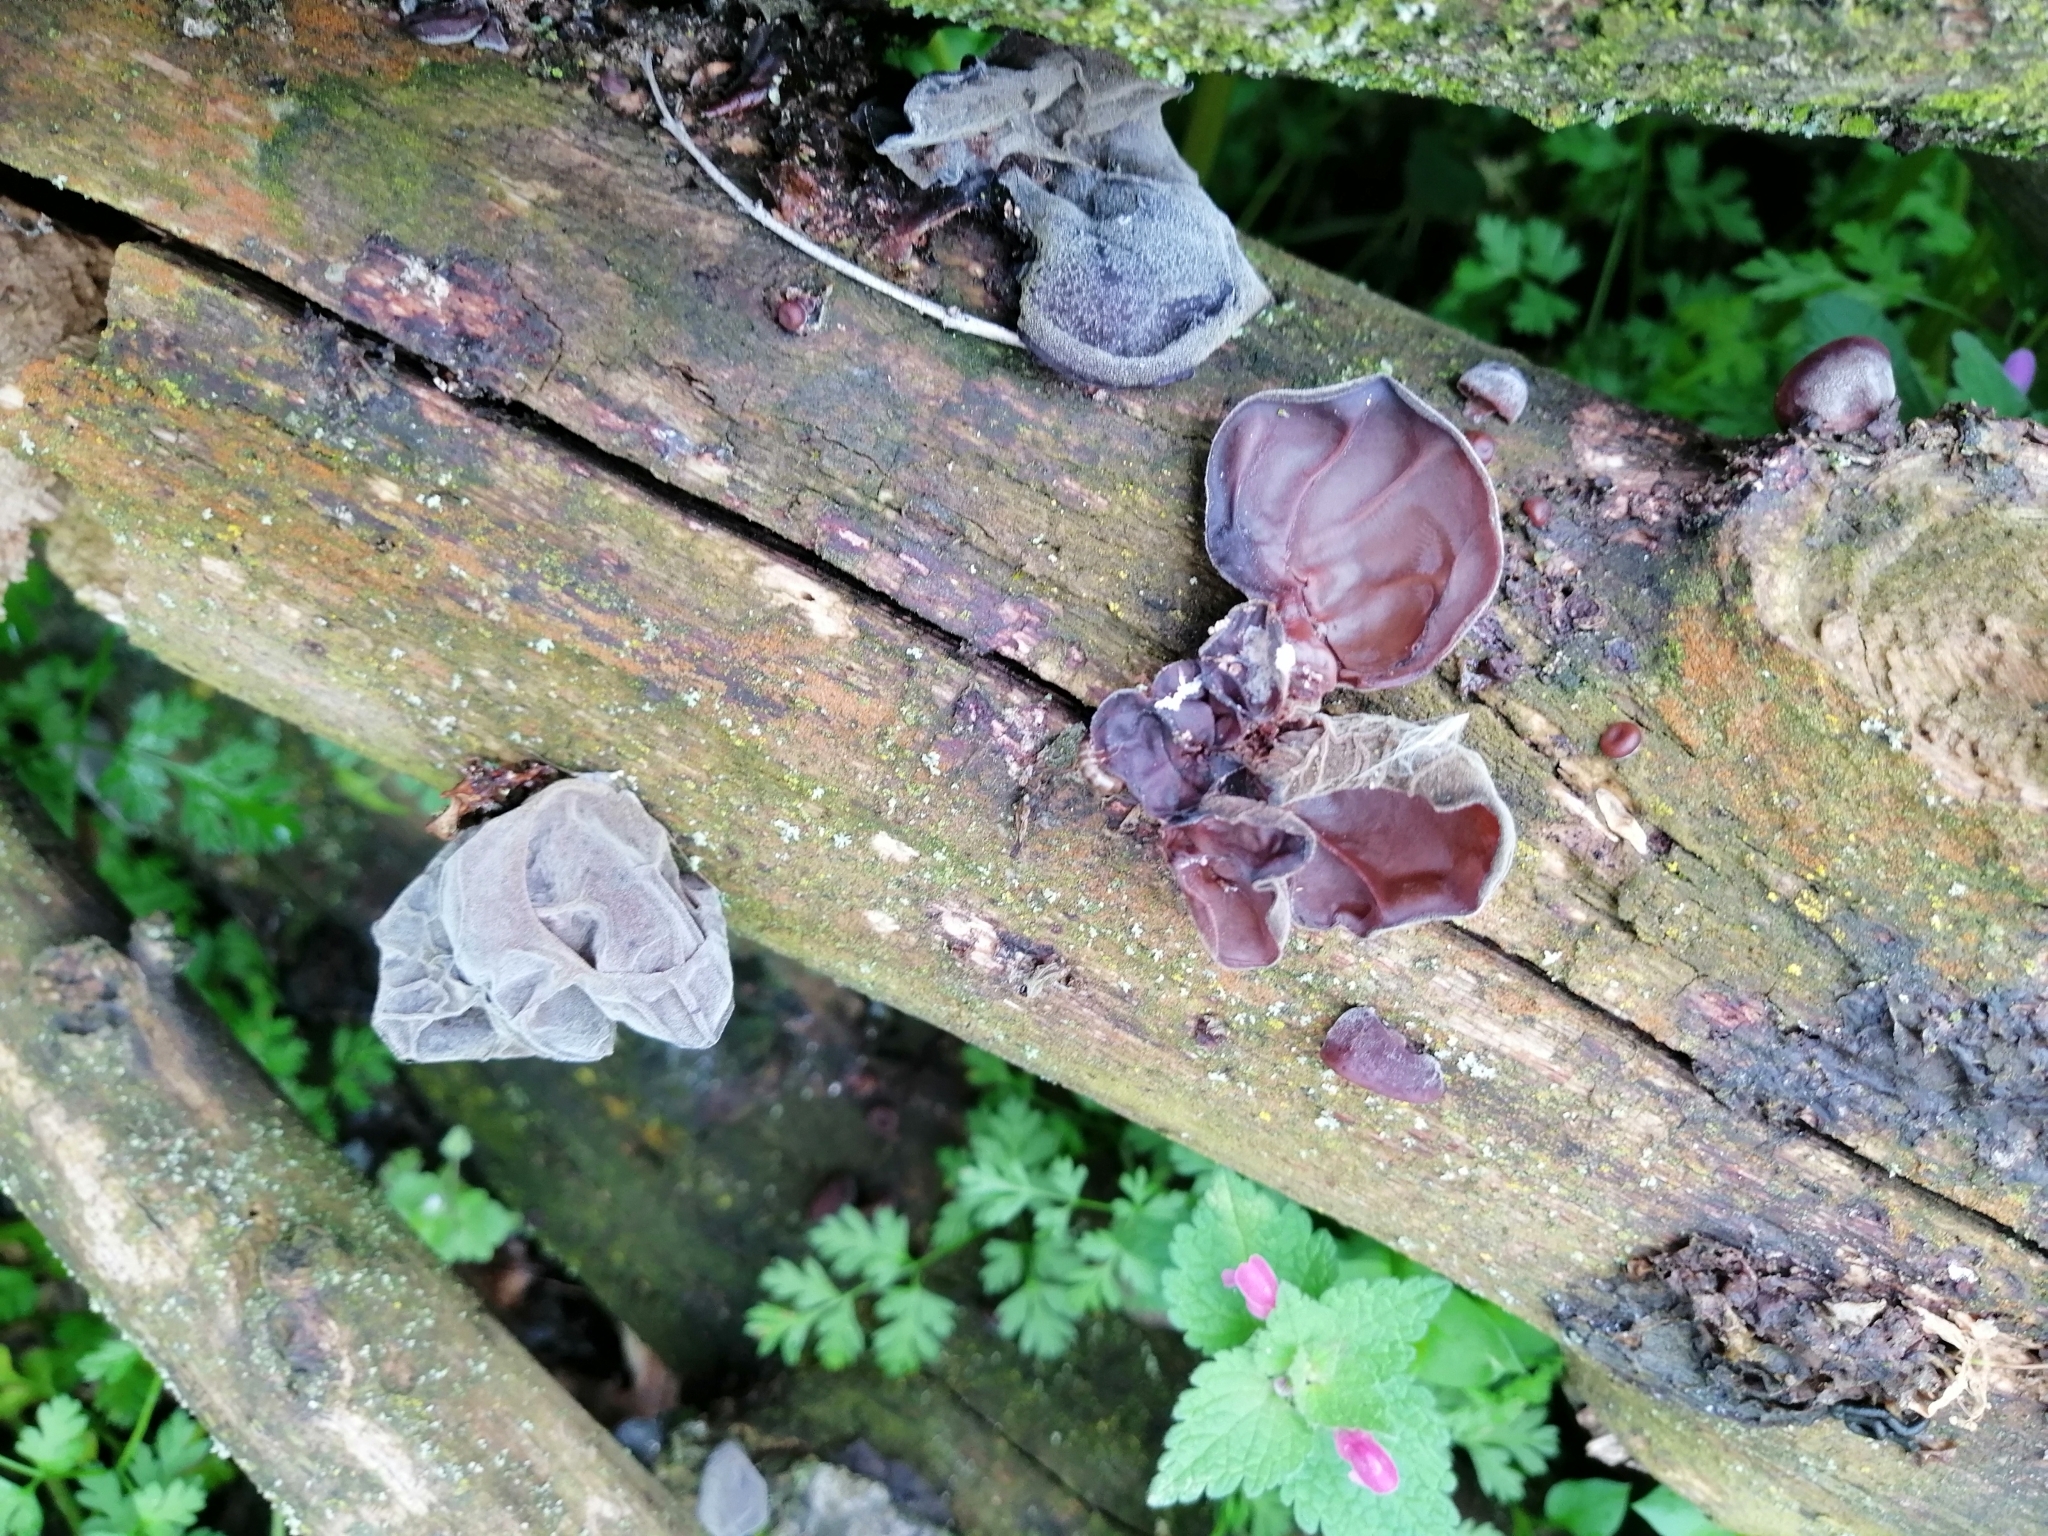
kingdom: Fungi
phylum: Basidiomycota
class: Agaricomycetes
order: Auriculariales
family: Auriculariaceae
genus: Auricularia
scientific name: Auricularia auricula-judae
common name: Jelly ear
